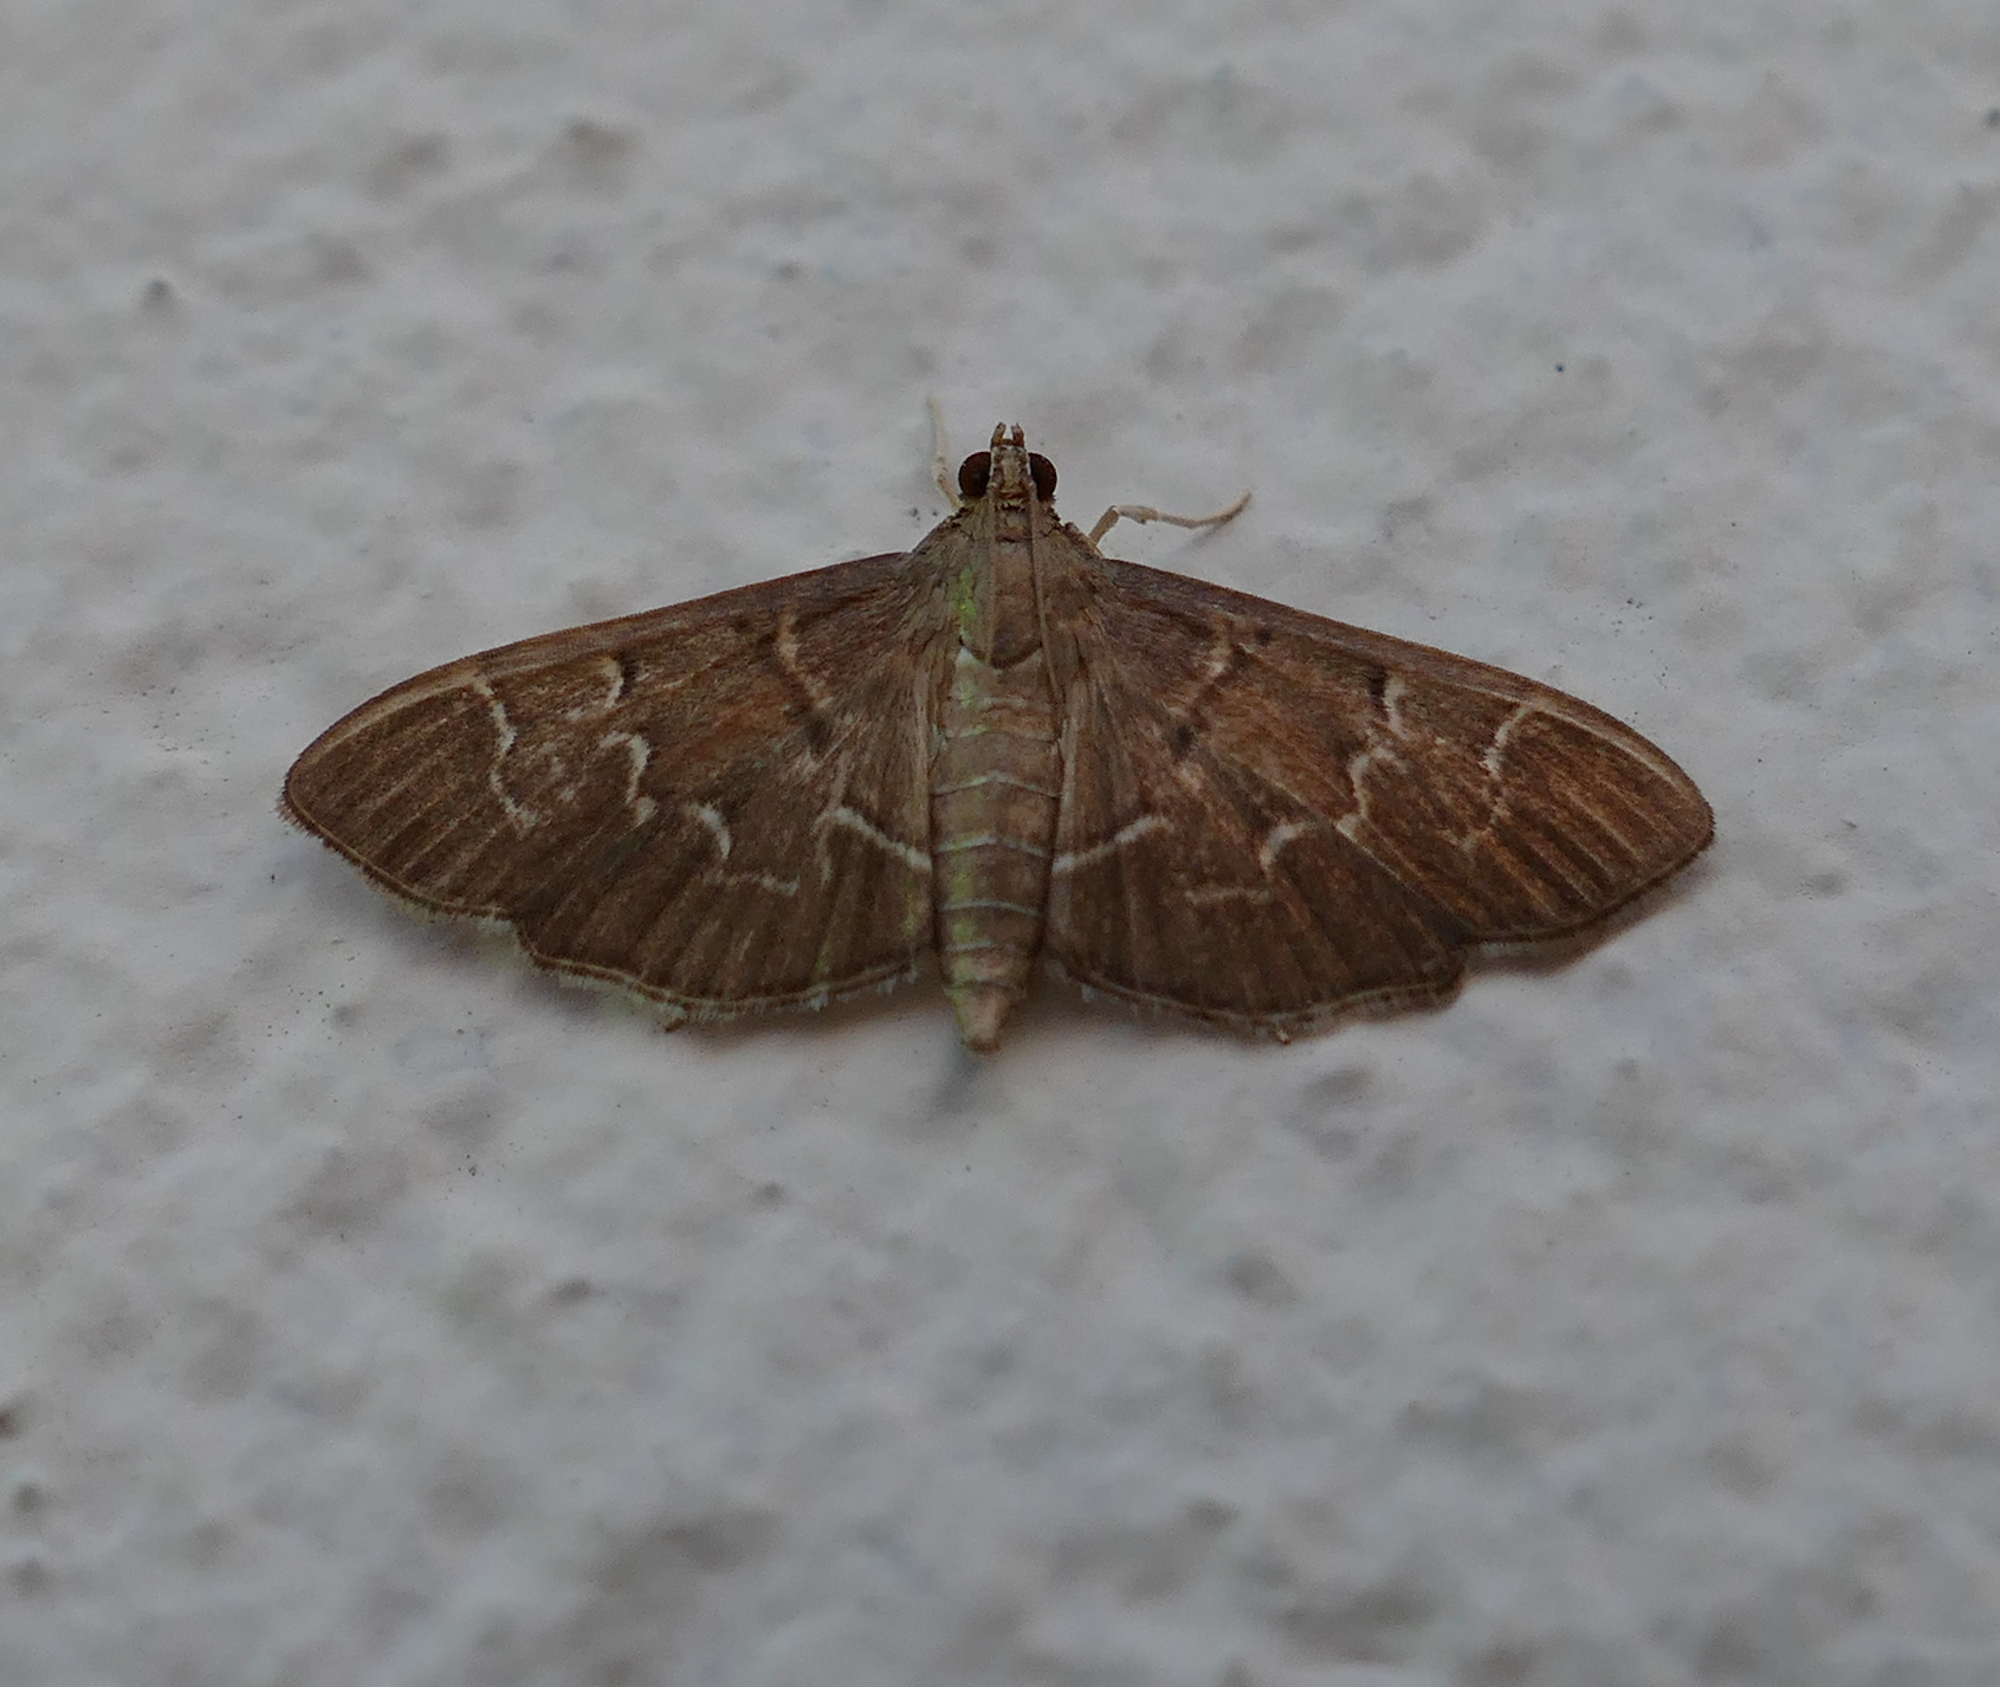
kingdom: Animalia
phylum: Arthropoda
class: Insecta
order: Lepidoptera
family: Crambidae
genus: Pilocrocis
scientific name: Pilocrocis ramentalis
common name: Scraped pilocrocis
